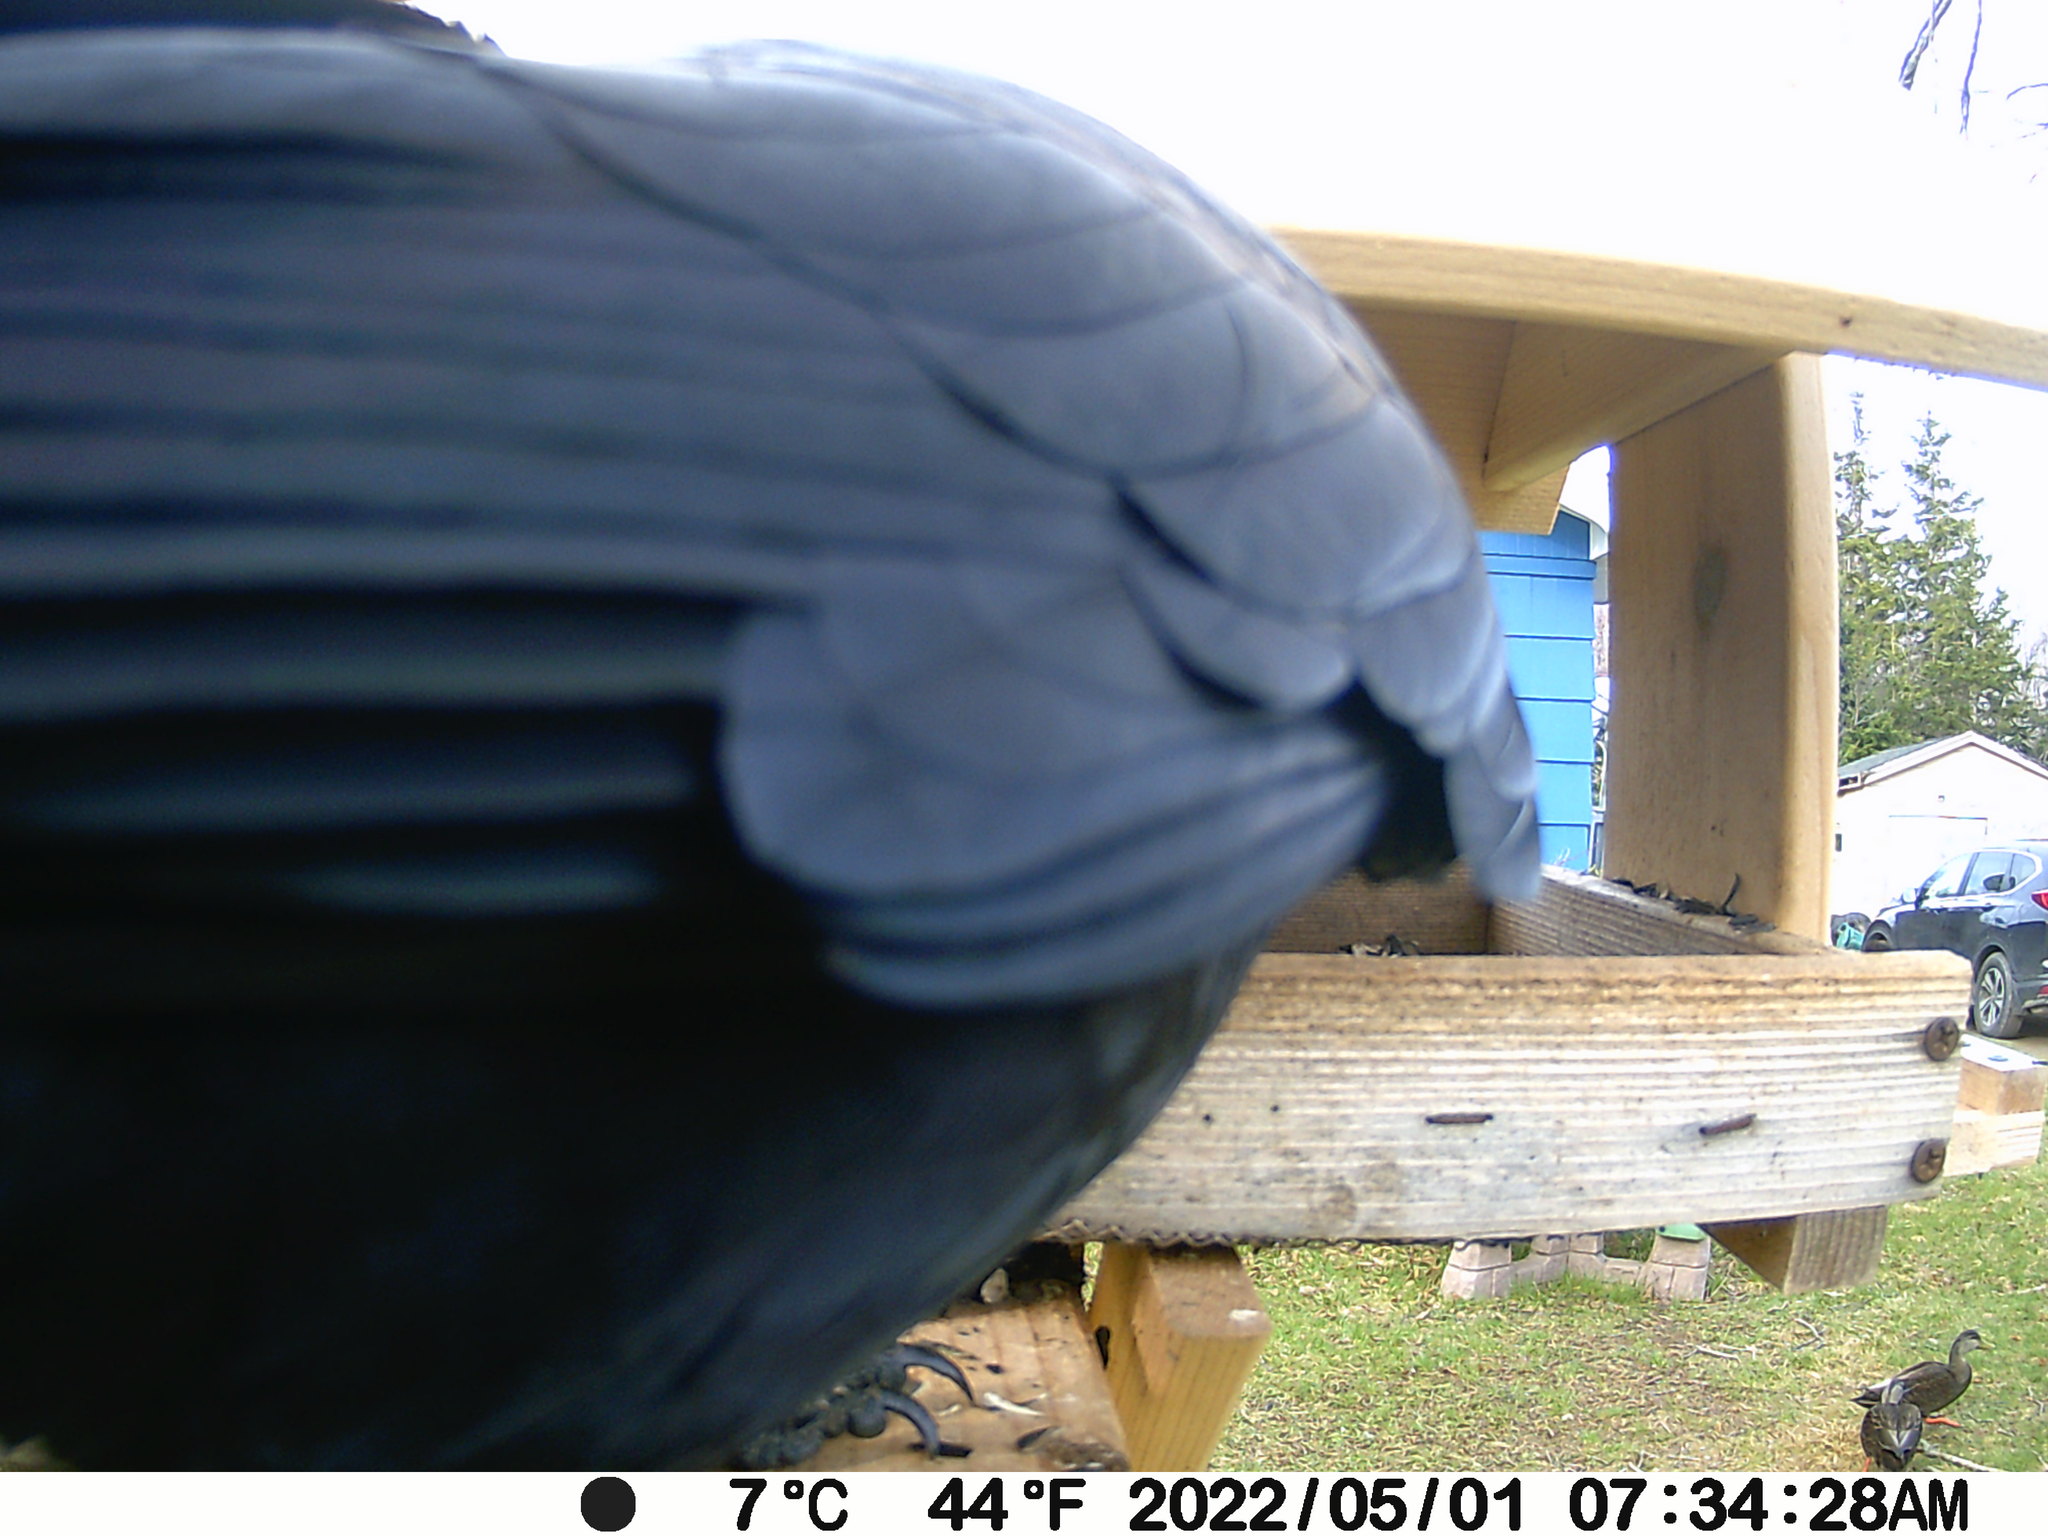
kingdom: Animalia
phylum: Chordata
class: Aves
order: Anseriformes
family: Anatidae
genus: Anas
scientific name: Anas rubripes
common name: American black duck
